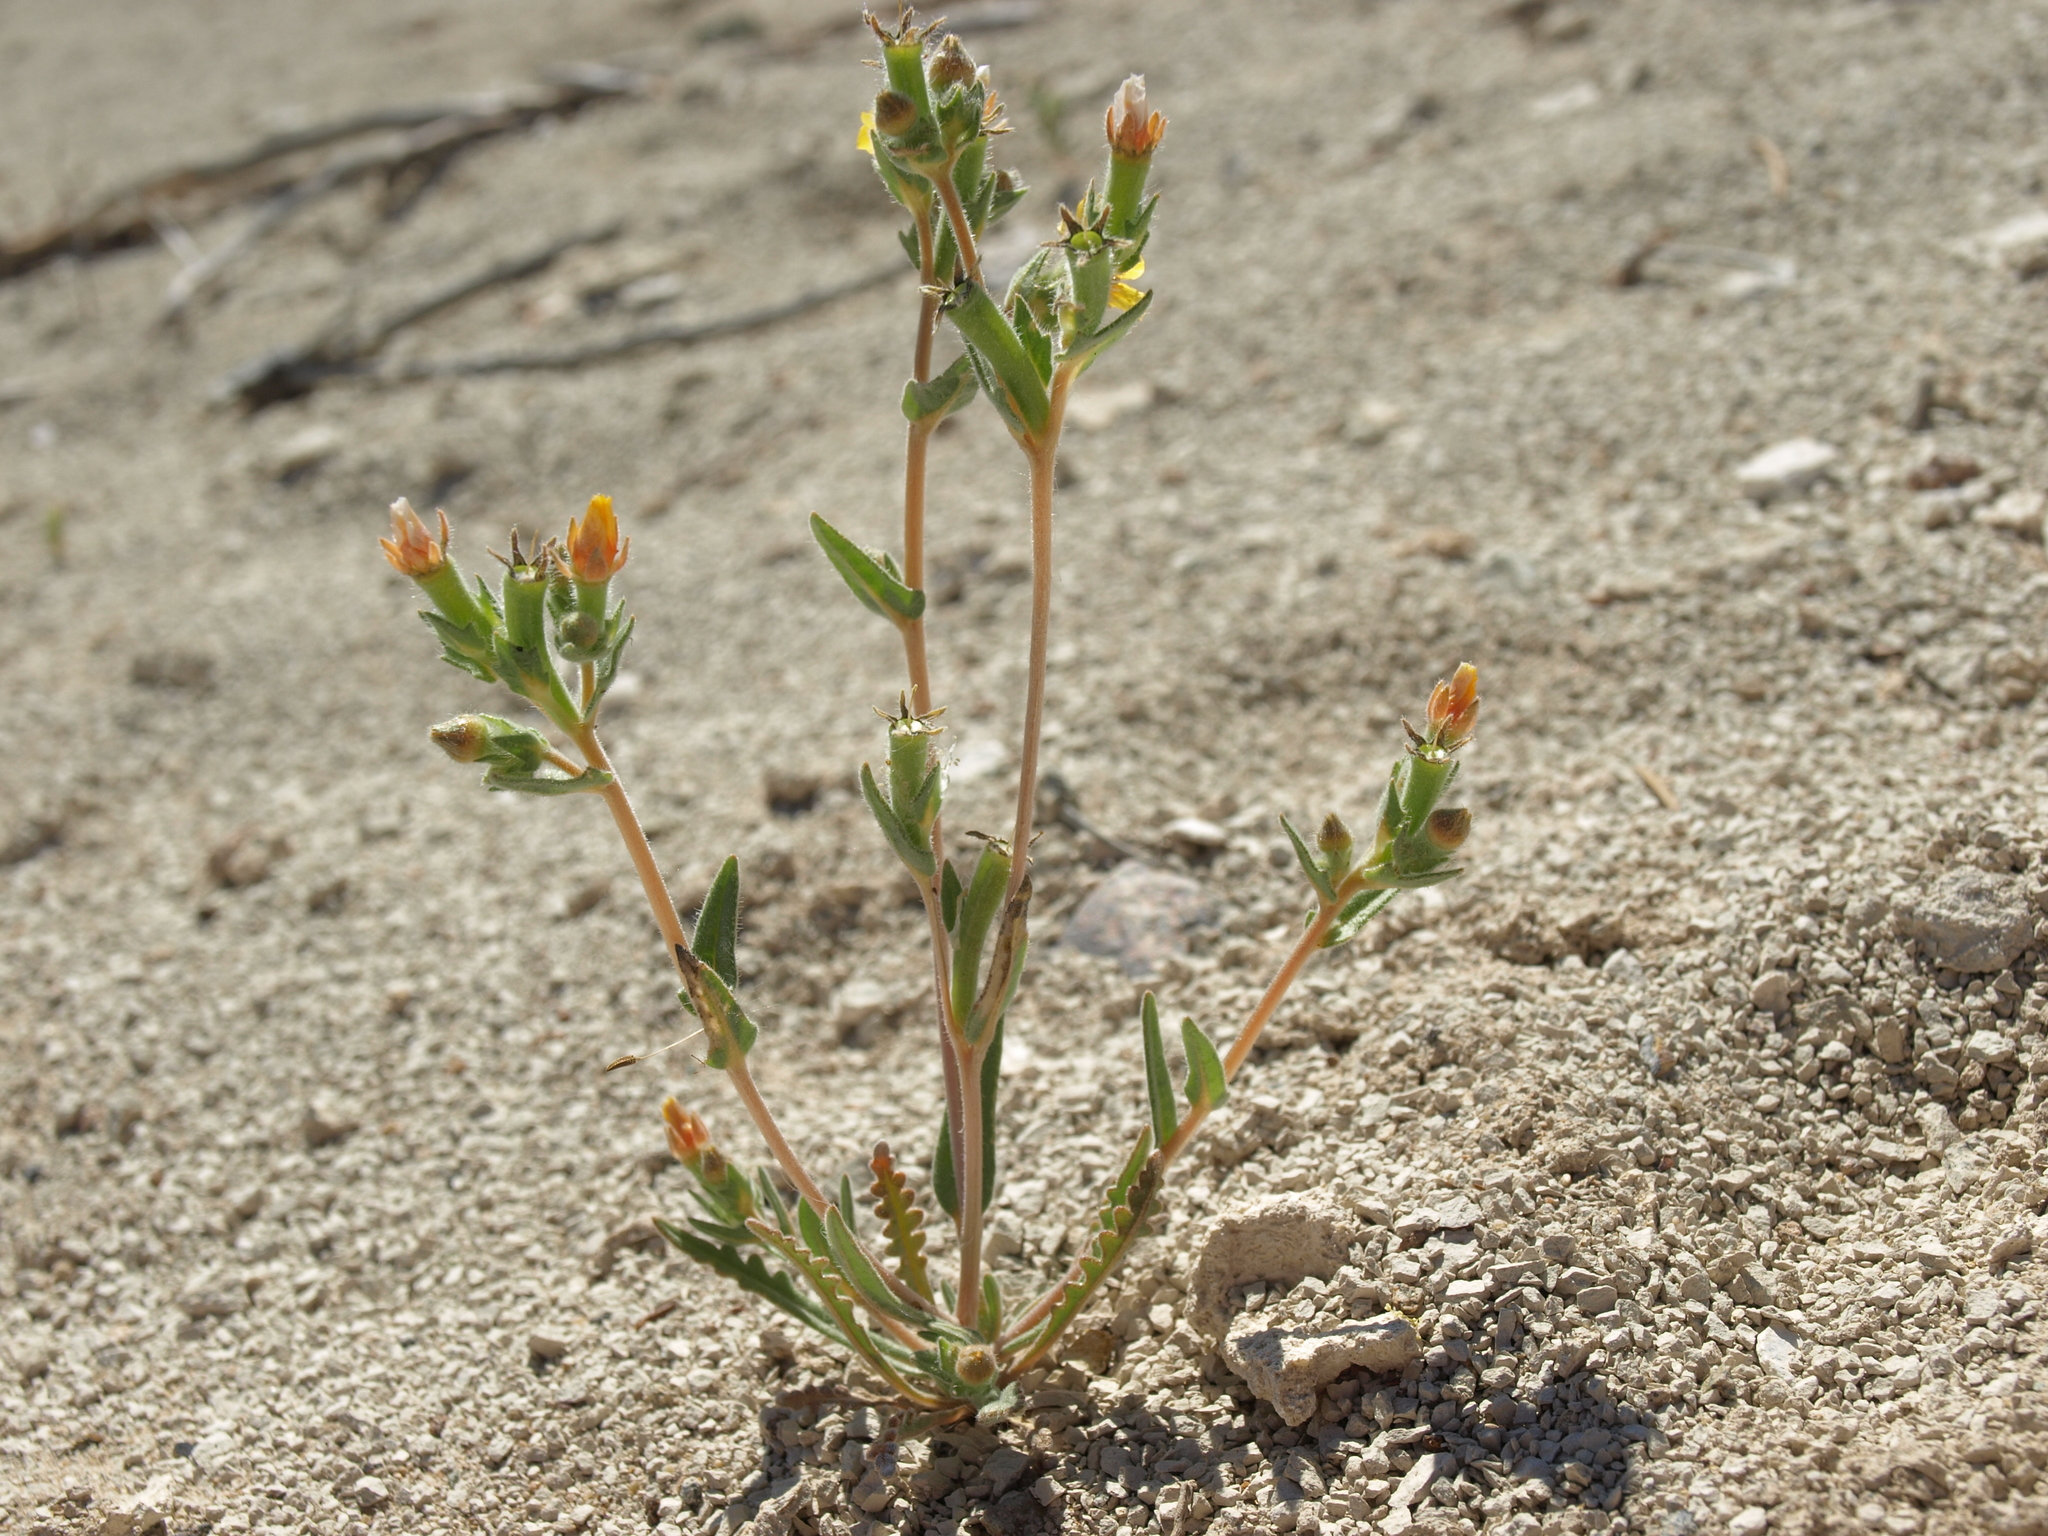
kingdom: Plantae
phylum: Tracheophyta
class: Magnoliopsida
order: Cornales
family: Loasaceae
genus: Mentzelia
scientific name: Mentzelia montana
